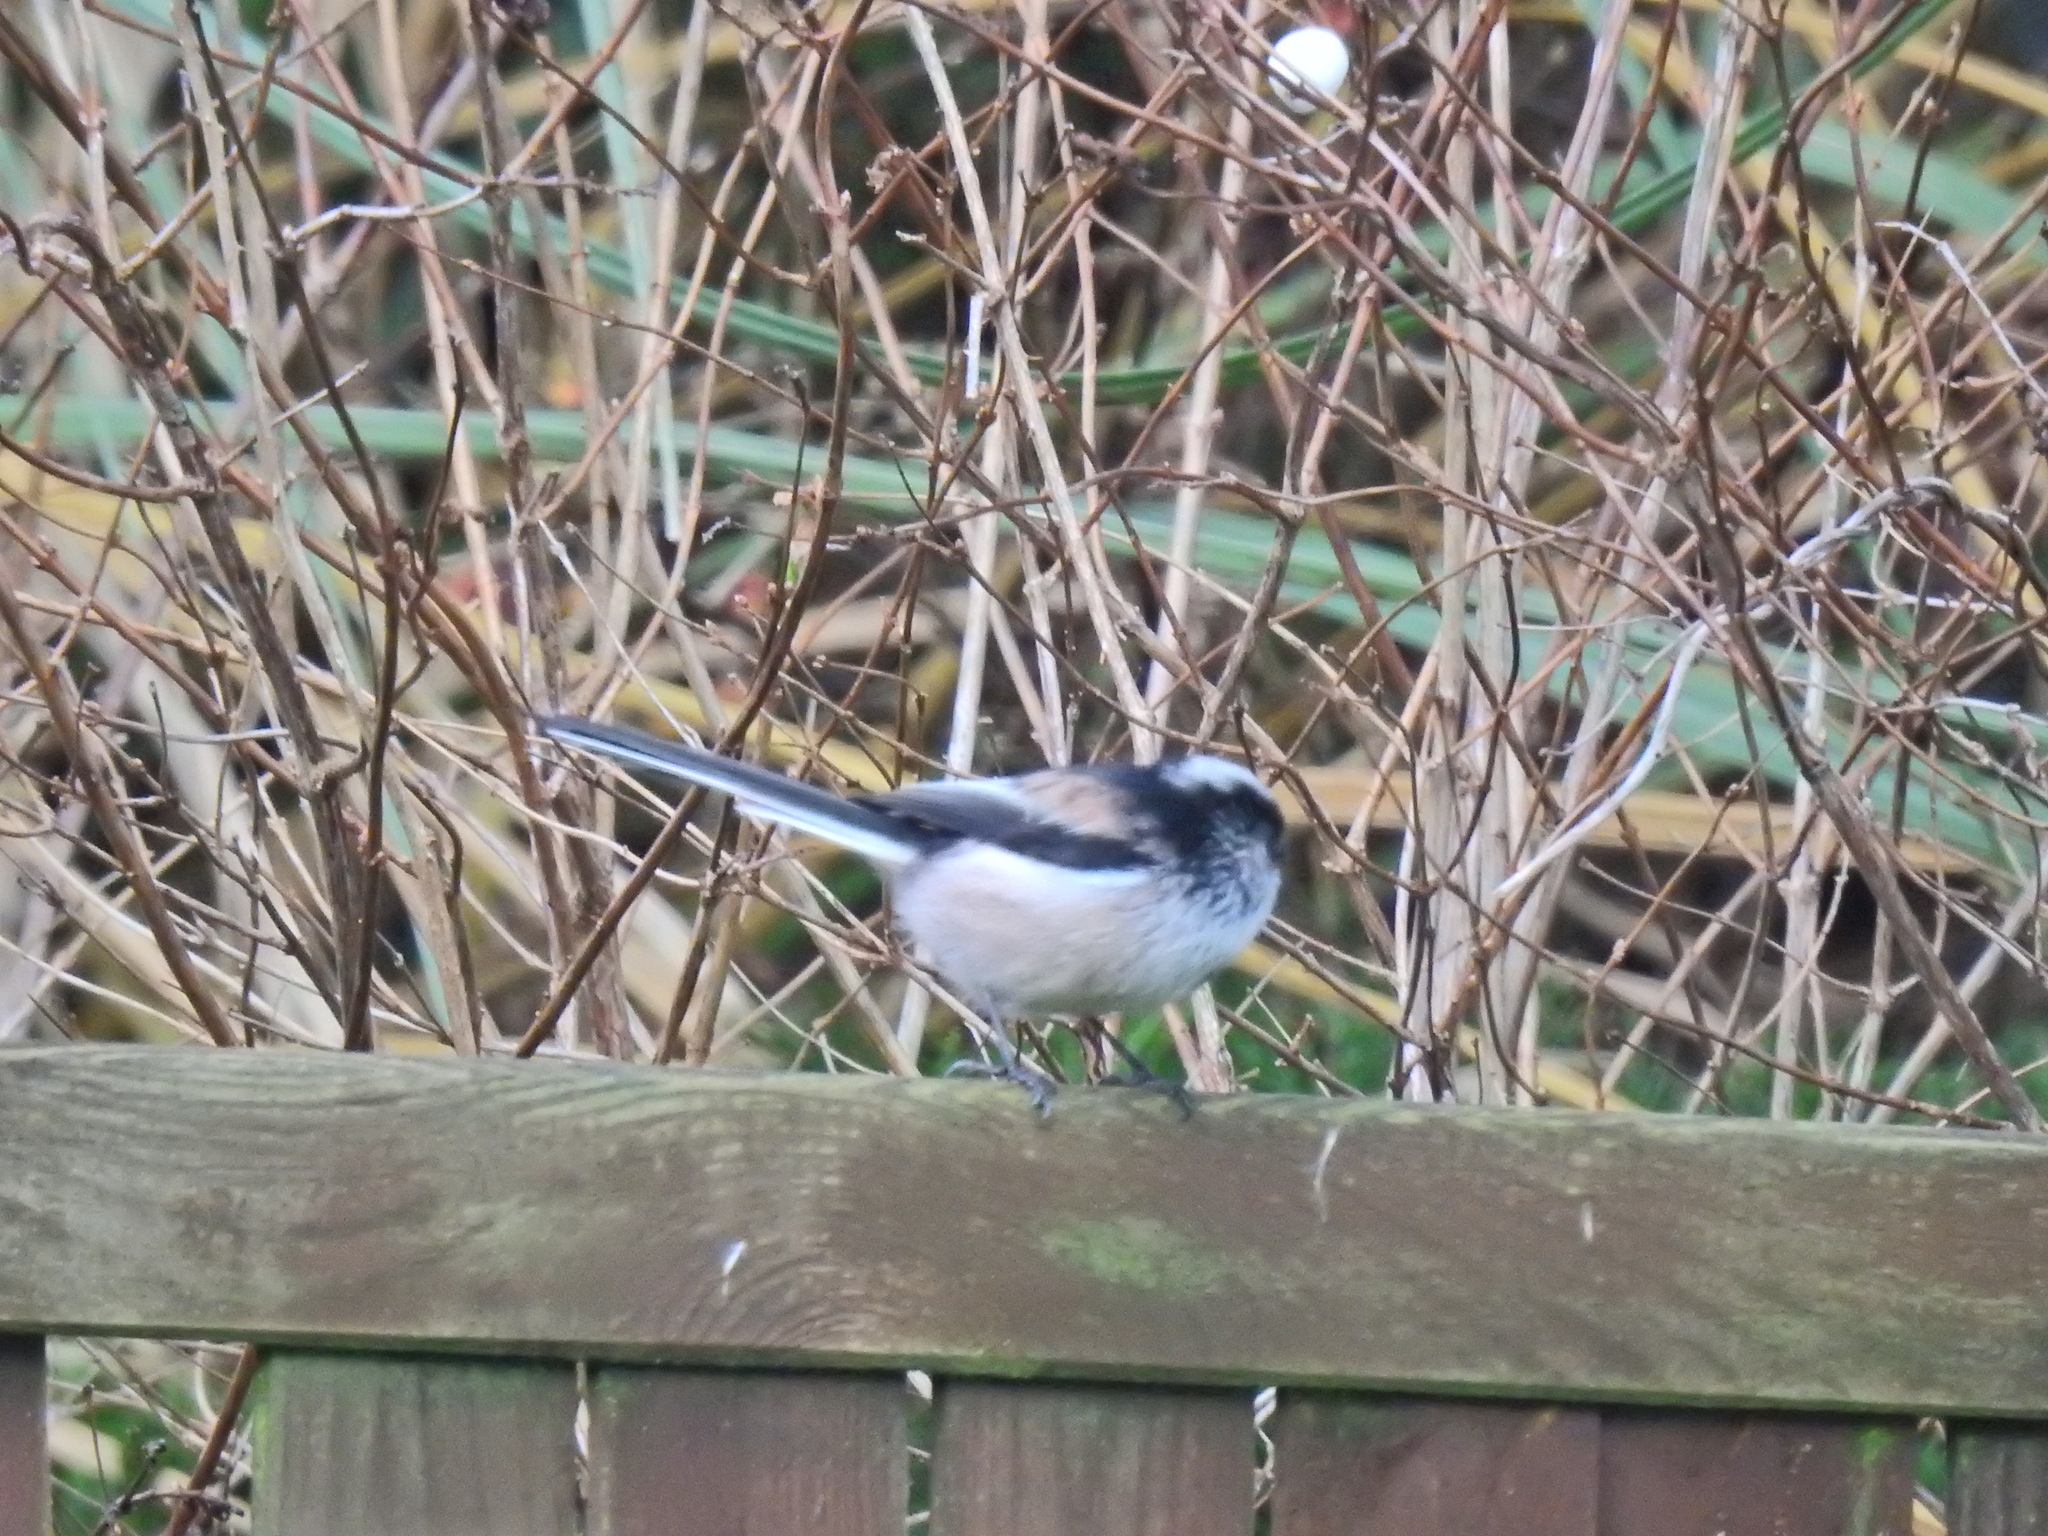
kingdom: Animalia
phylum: Chordata
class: Aves
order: Passeriformes
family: Aegithalidae
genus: Aegithalos
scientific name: Aegithalos caudatus
